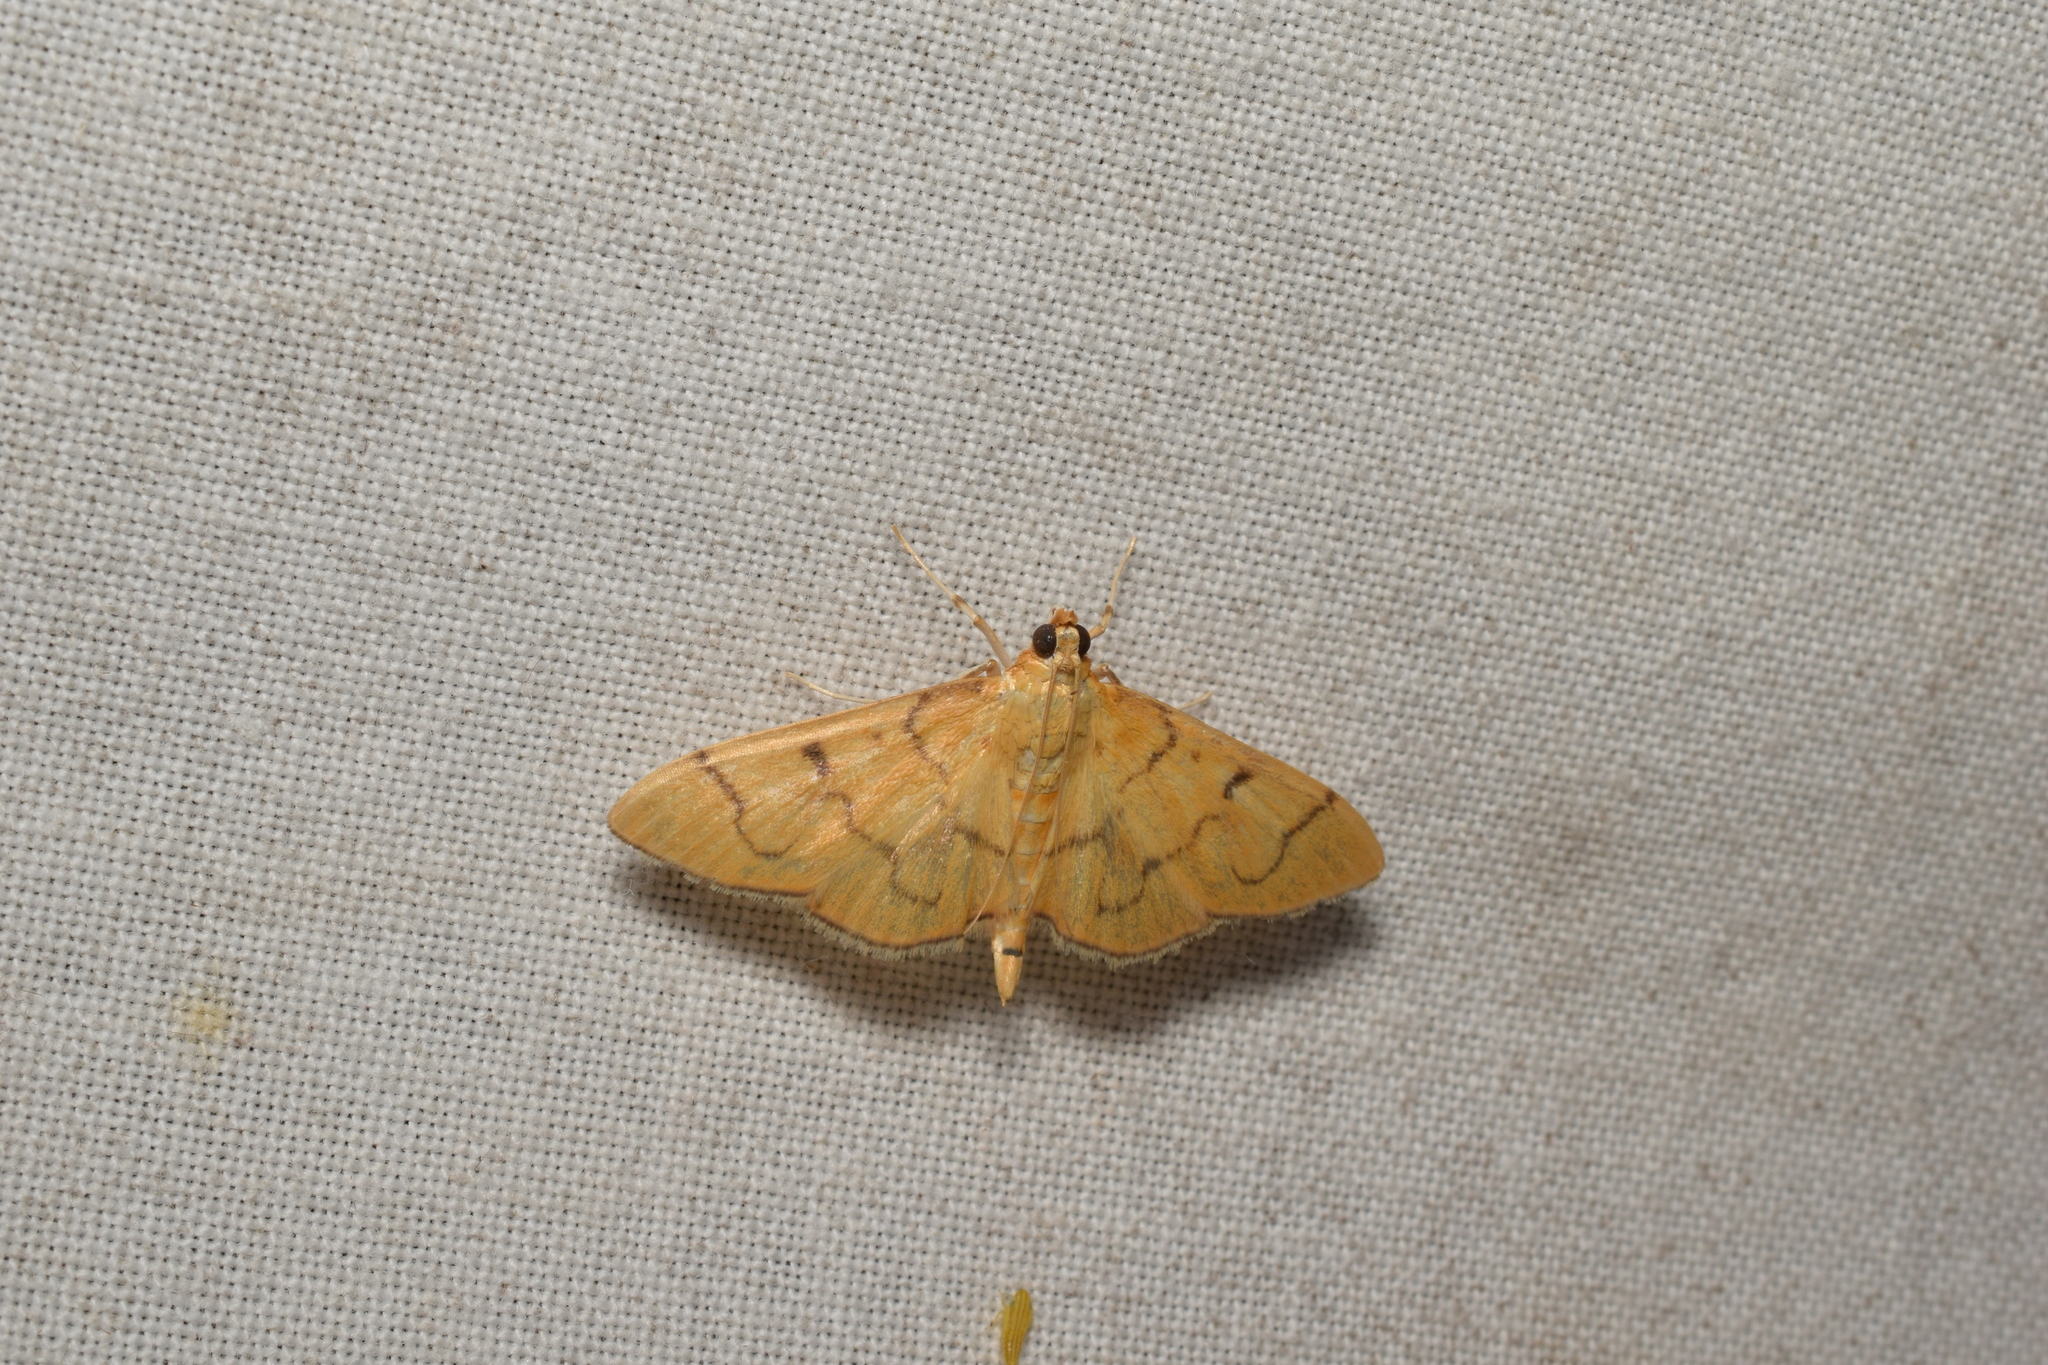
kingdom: Animalia
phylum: Arthropoda
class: Insecta
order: Lepidoptera
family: Crambidae
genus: Patania
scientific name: Patania chlorophanta
